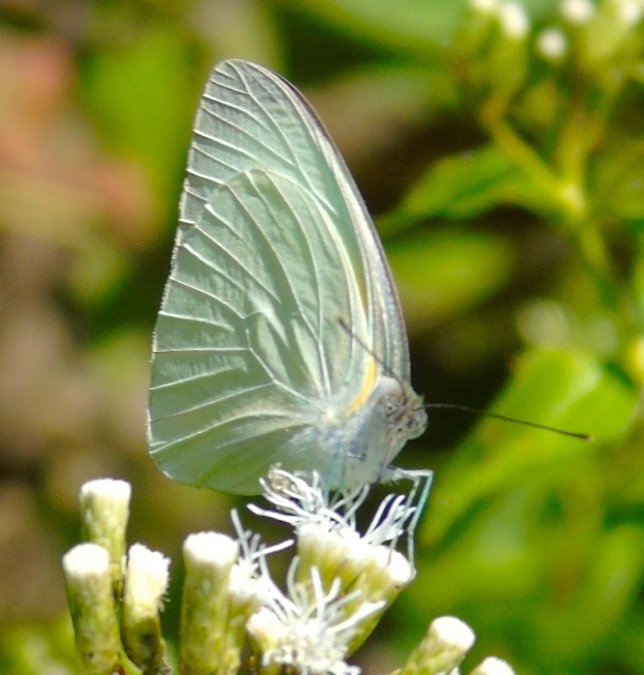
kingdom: Animalia
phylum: Arthropoda
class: Insecta
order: Lepidoptera
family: Pieridae
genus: Glutophrissa
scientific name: Glutophrissa drusilla
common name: Florida white
